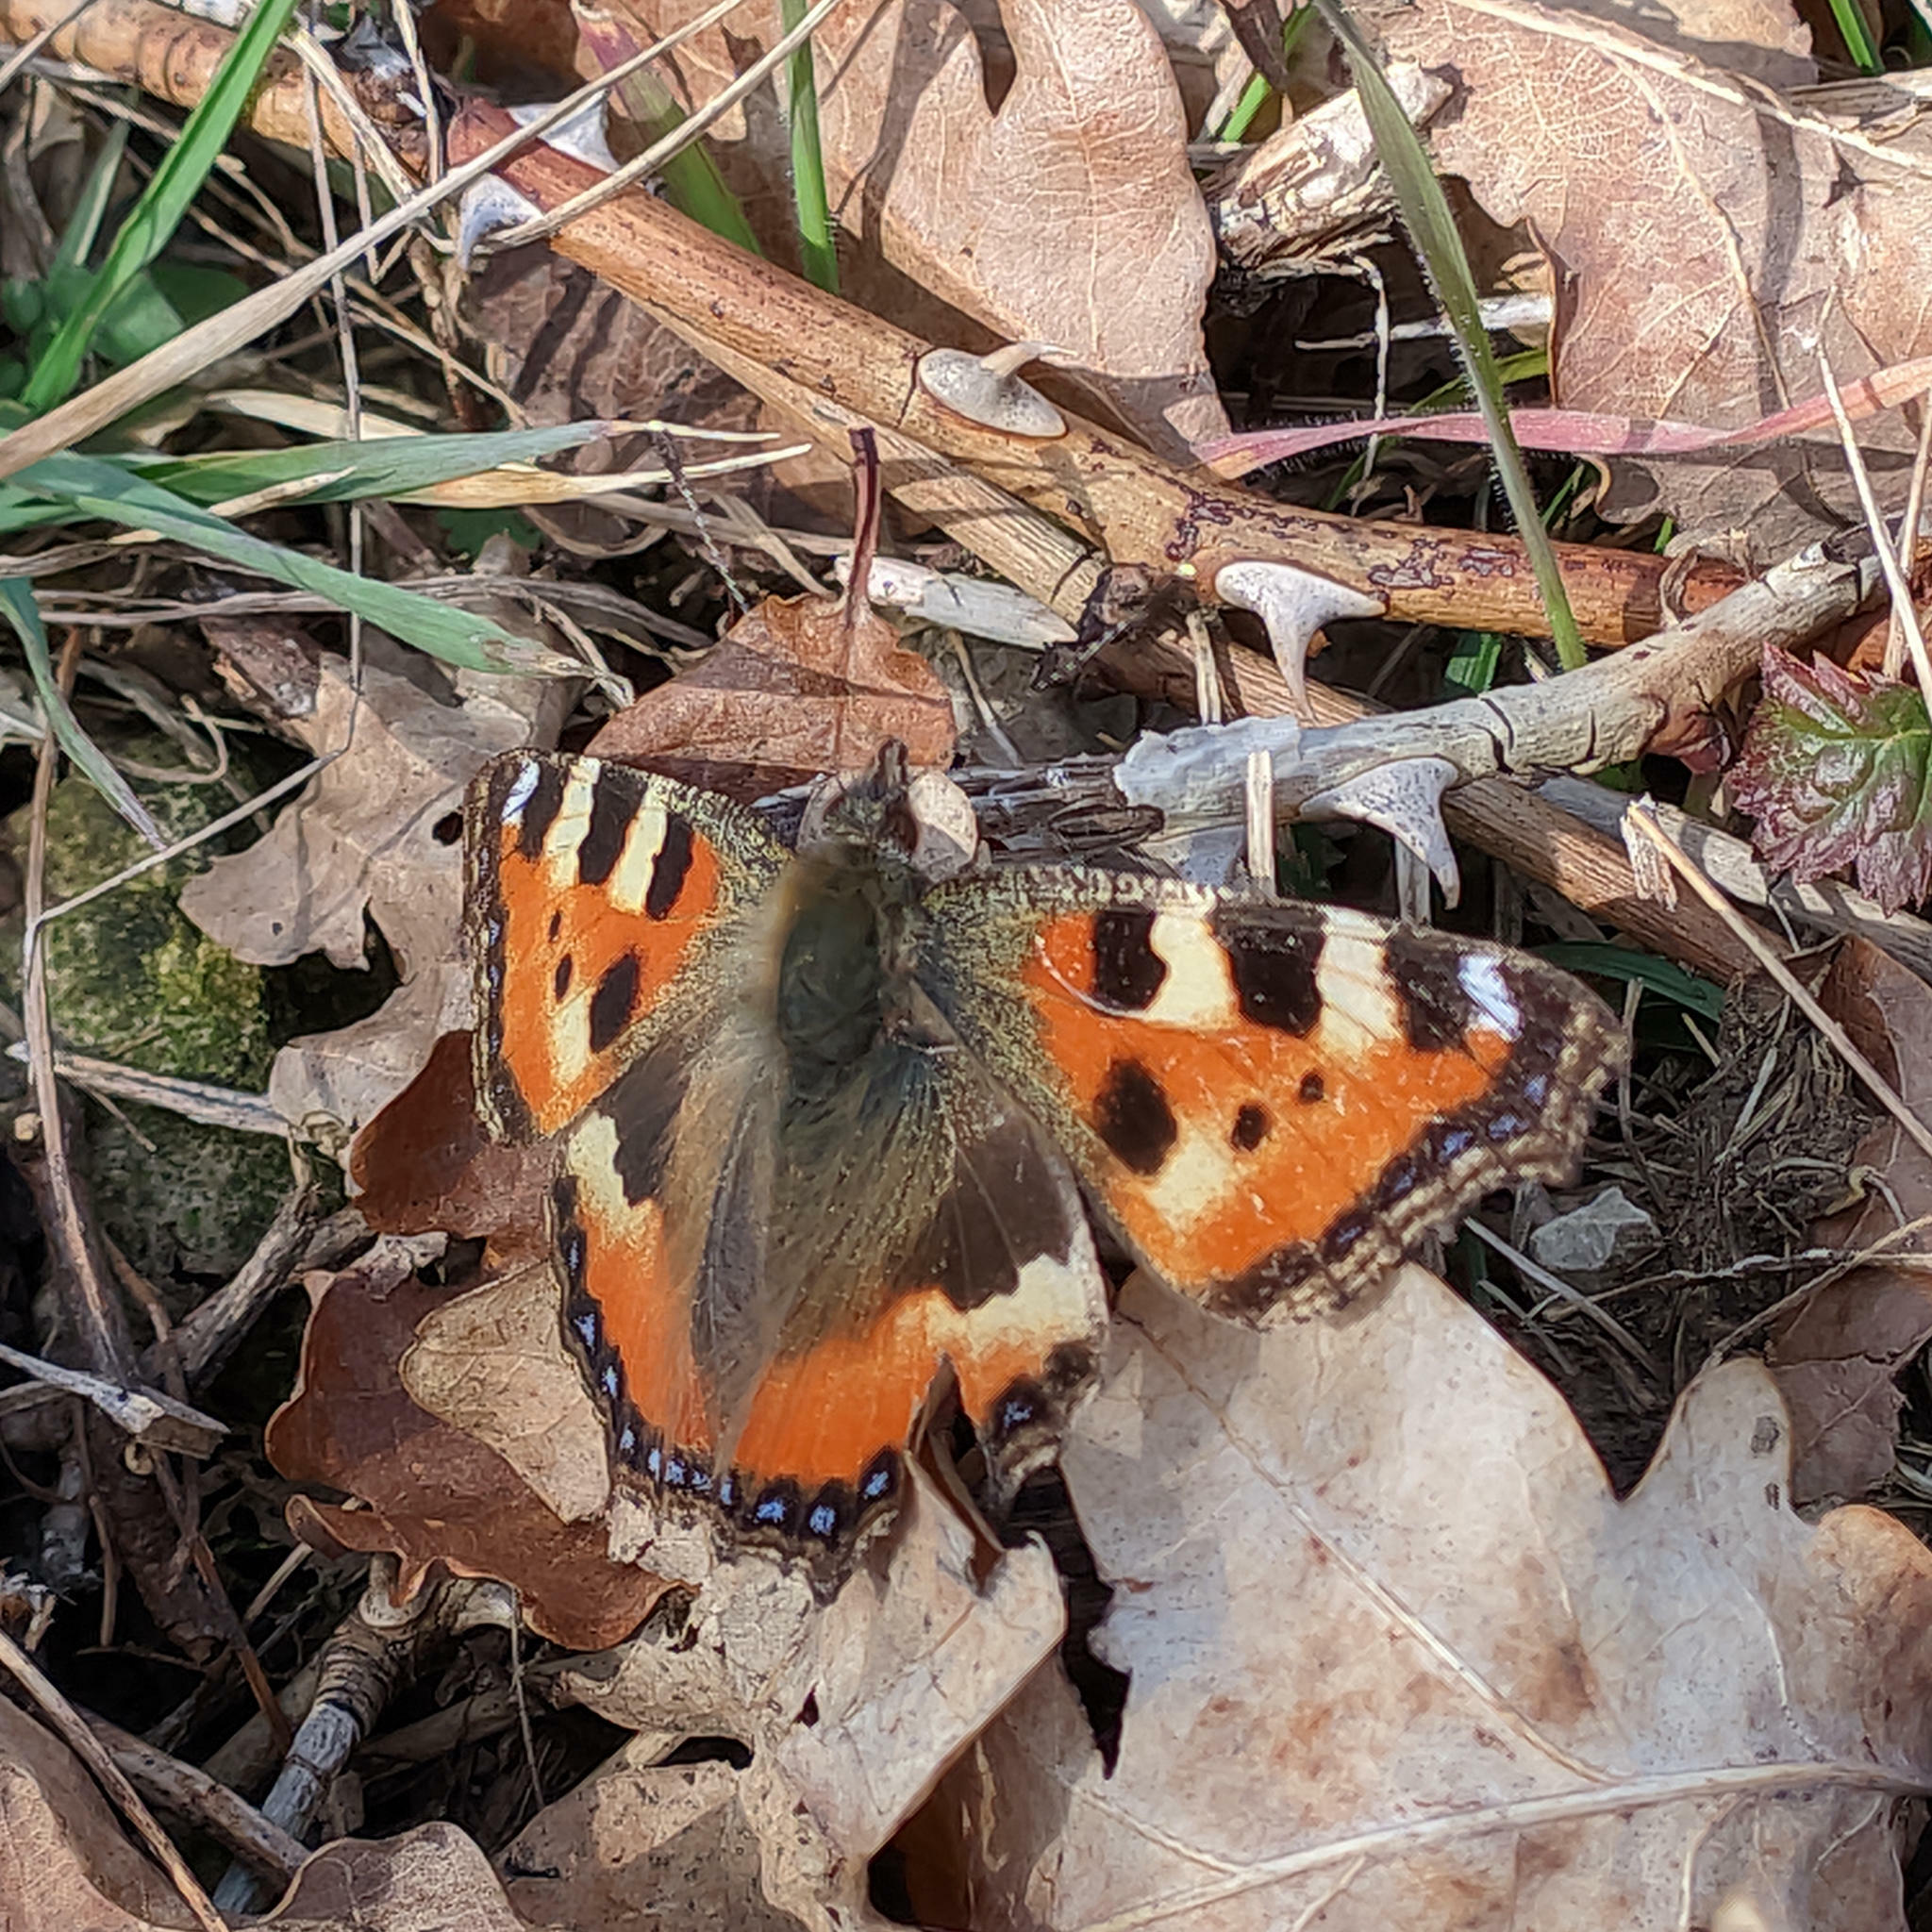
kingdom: Animalia
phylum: Arthropoda
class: Insecta
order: Lepidoptera
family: Nymphalidae
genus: Aglais
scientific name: Aglais urticae
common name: Small tortoiseshell
